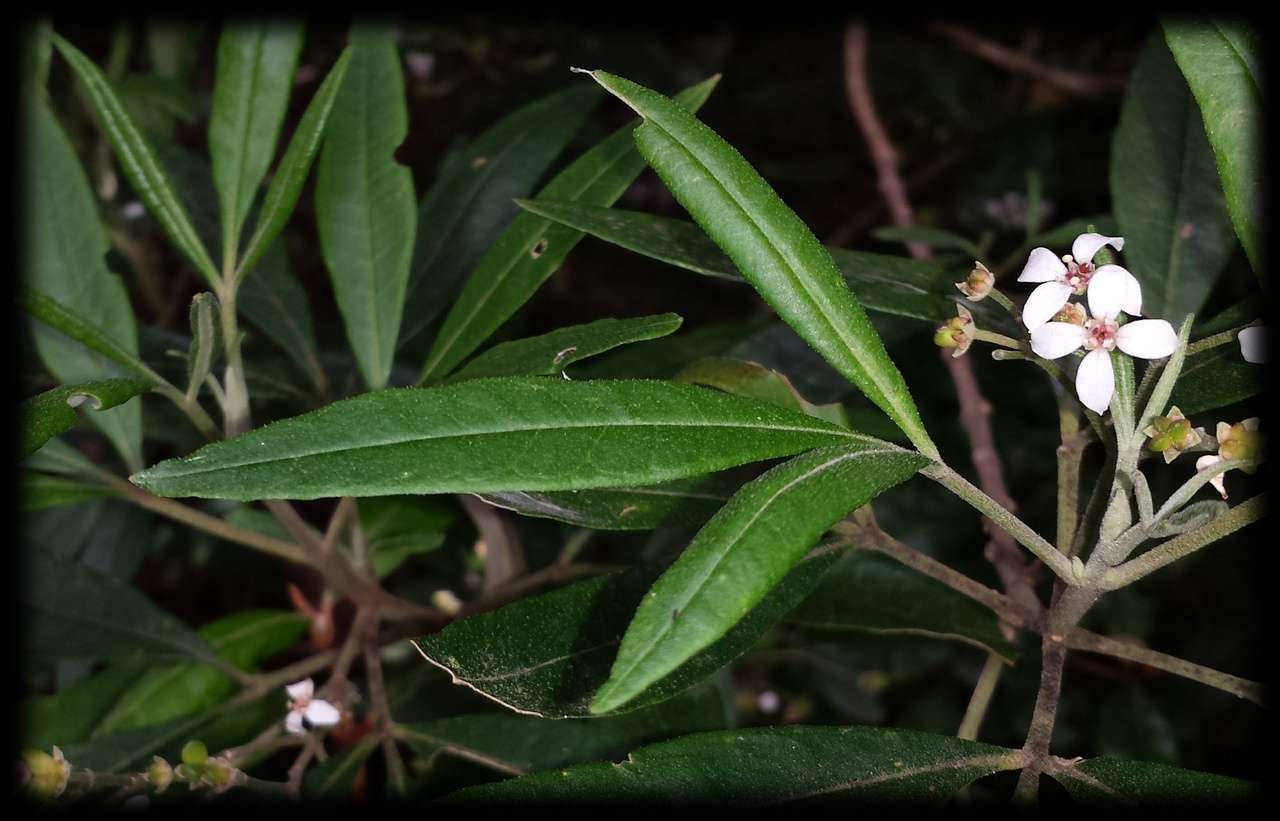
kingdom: Plantae
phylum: Tracheophyta
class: Magnoliopsida
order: Sapindales
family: Rutaceae
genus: Zieria
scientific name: Zieria arborescens
